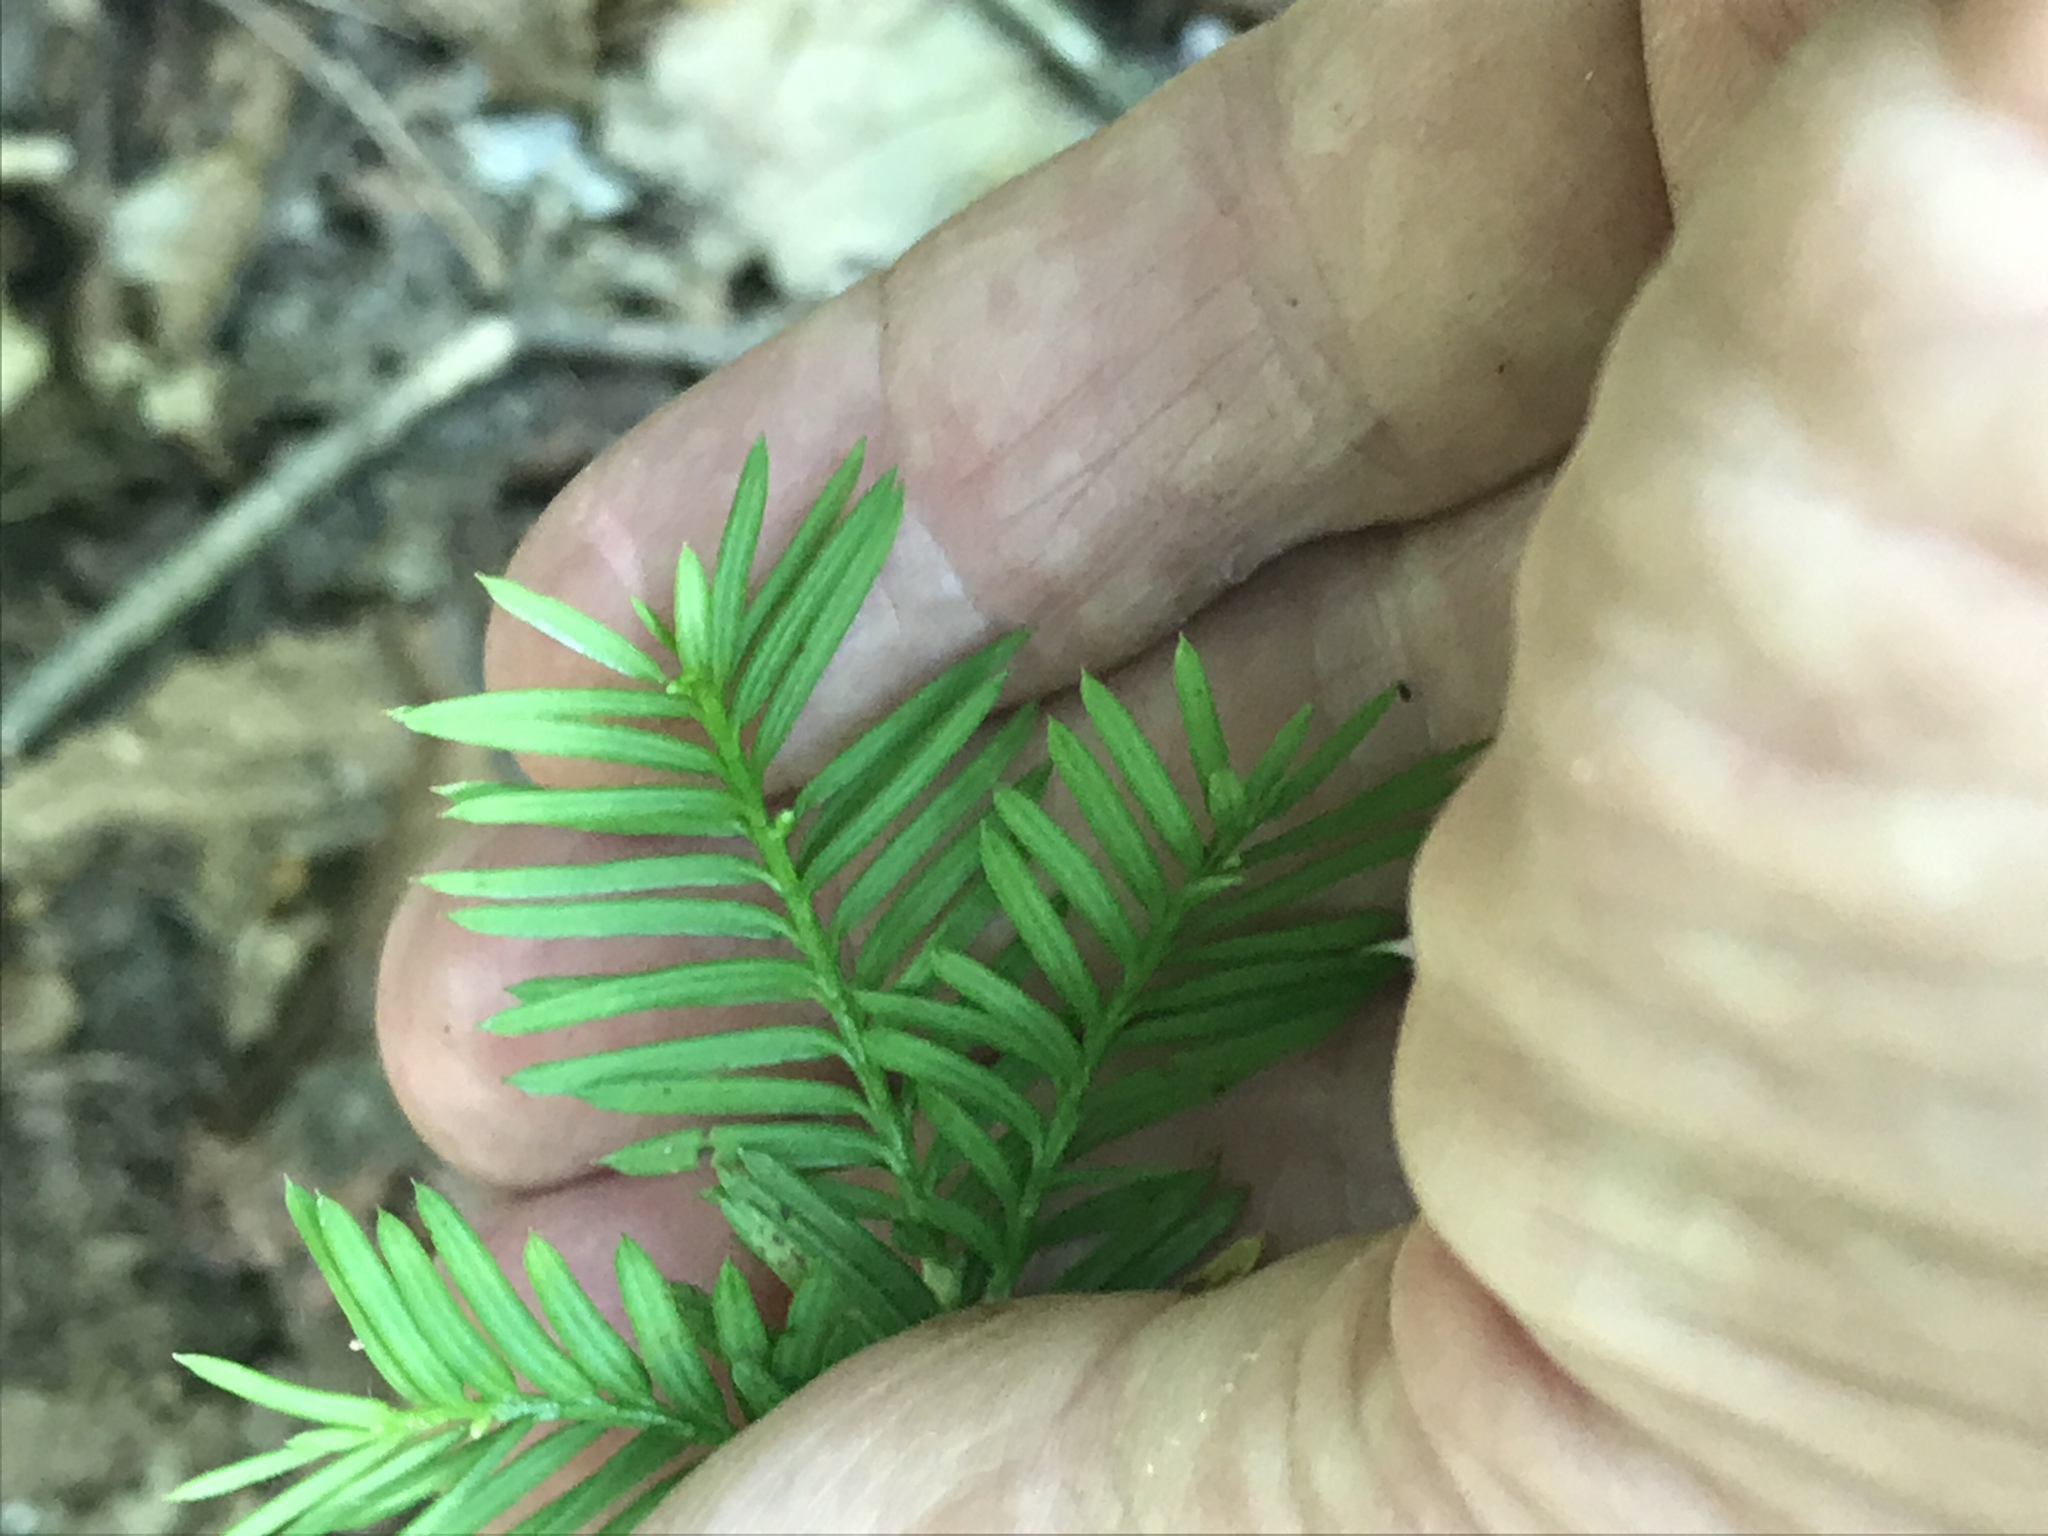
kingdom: Plantae
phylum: Tracheophyta
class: Pinopsida
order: Pinales
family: Taxaceae
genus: Taxus
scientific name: Taxus canadensis
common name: American yew
